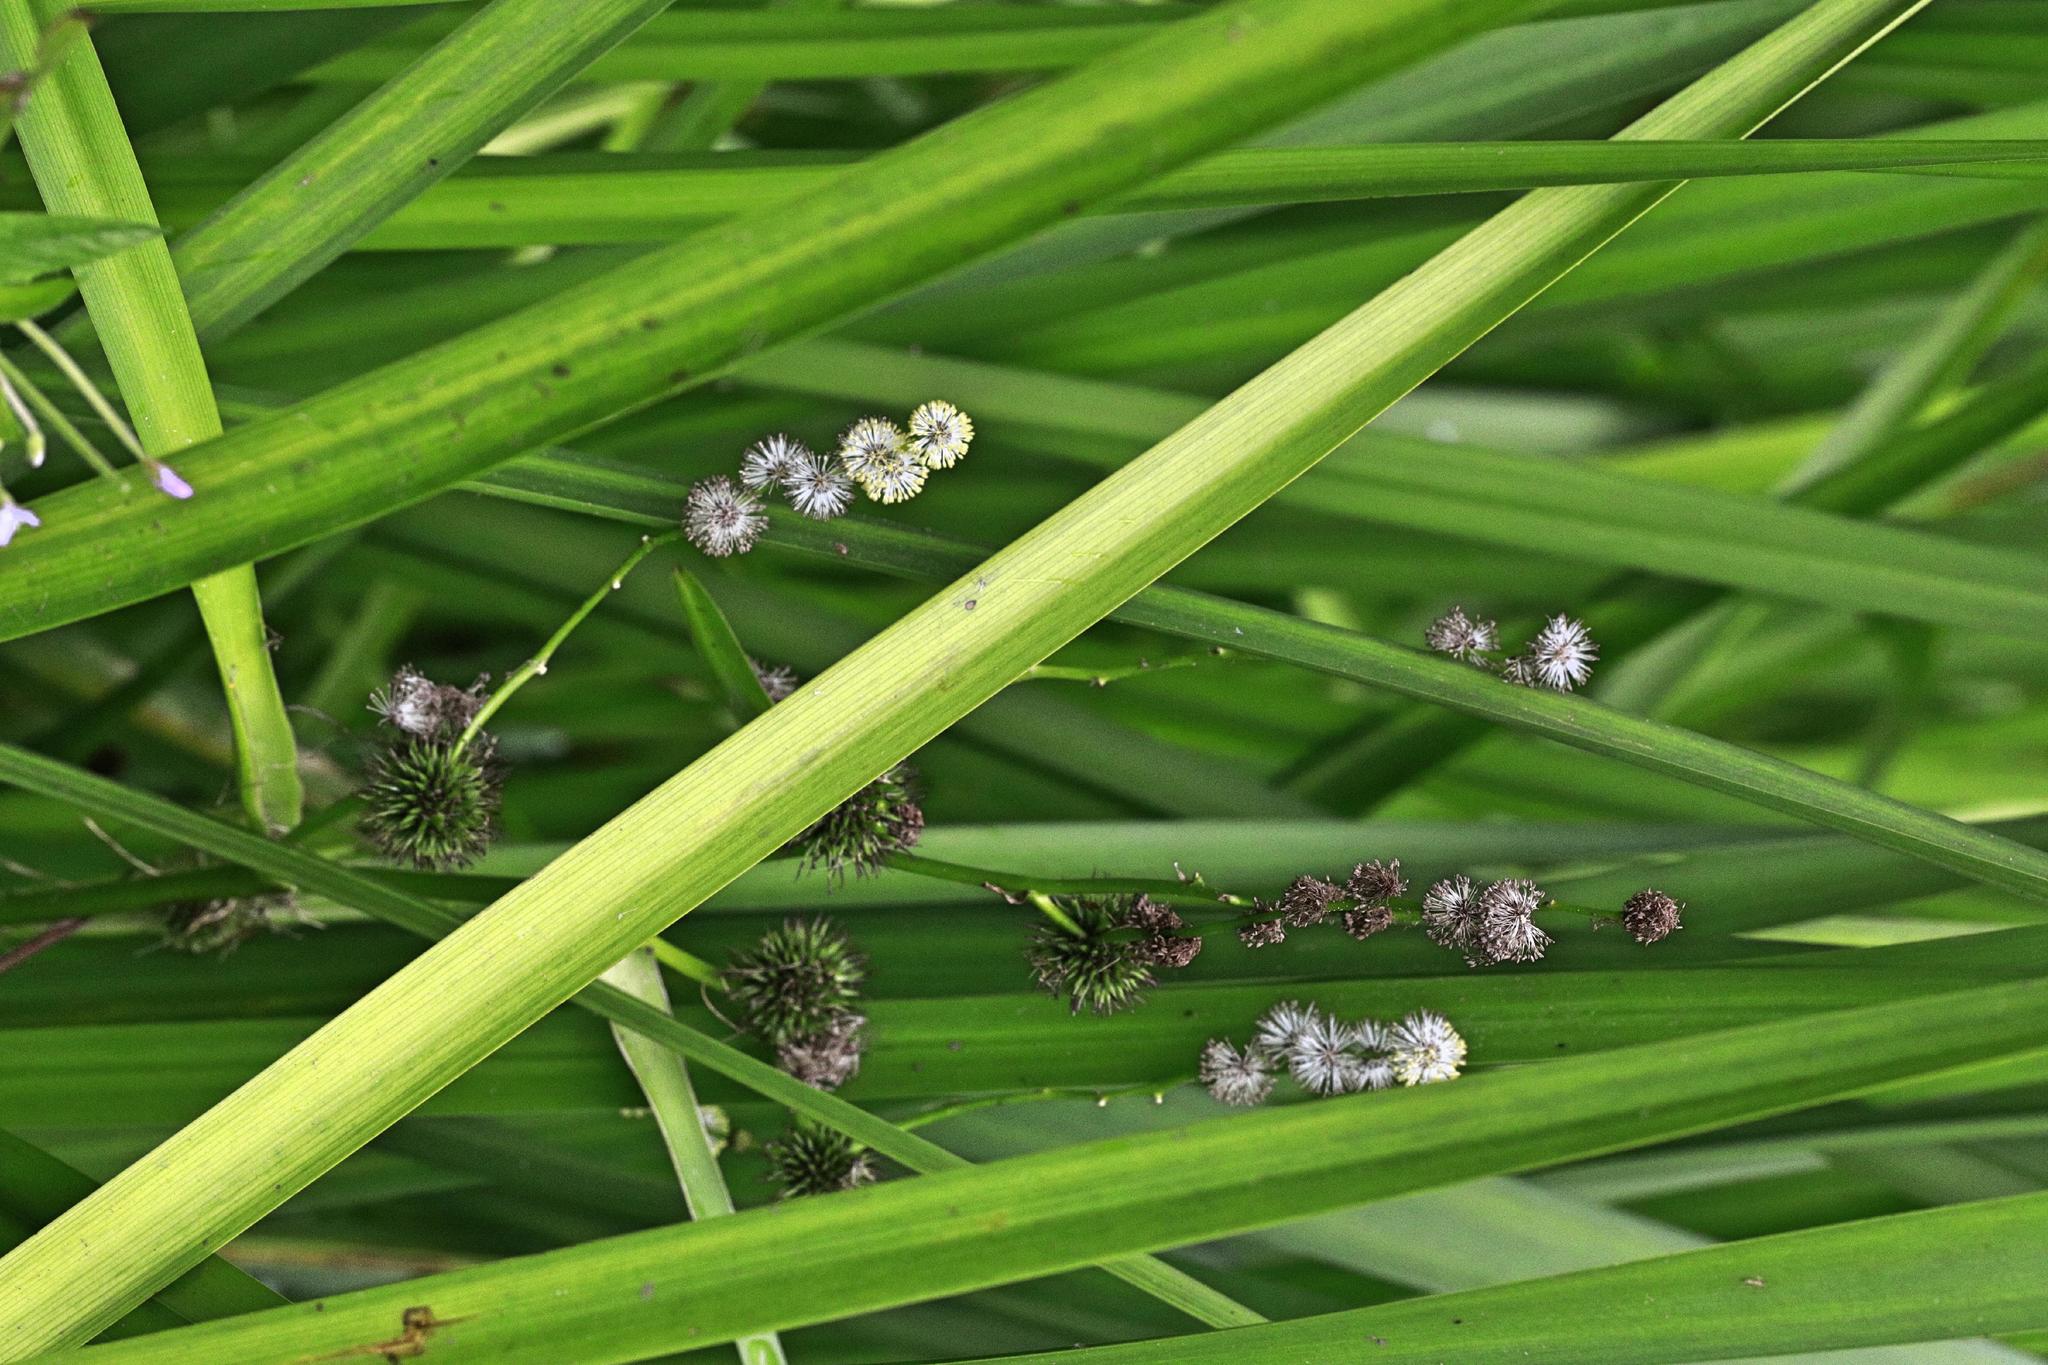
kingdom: Plantae
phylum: Tracheophyta
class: Liliopsida
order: Poales
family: Typhaceae
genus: Sparganium
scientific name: Sparganium erectum
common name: Branched bur-reed
